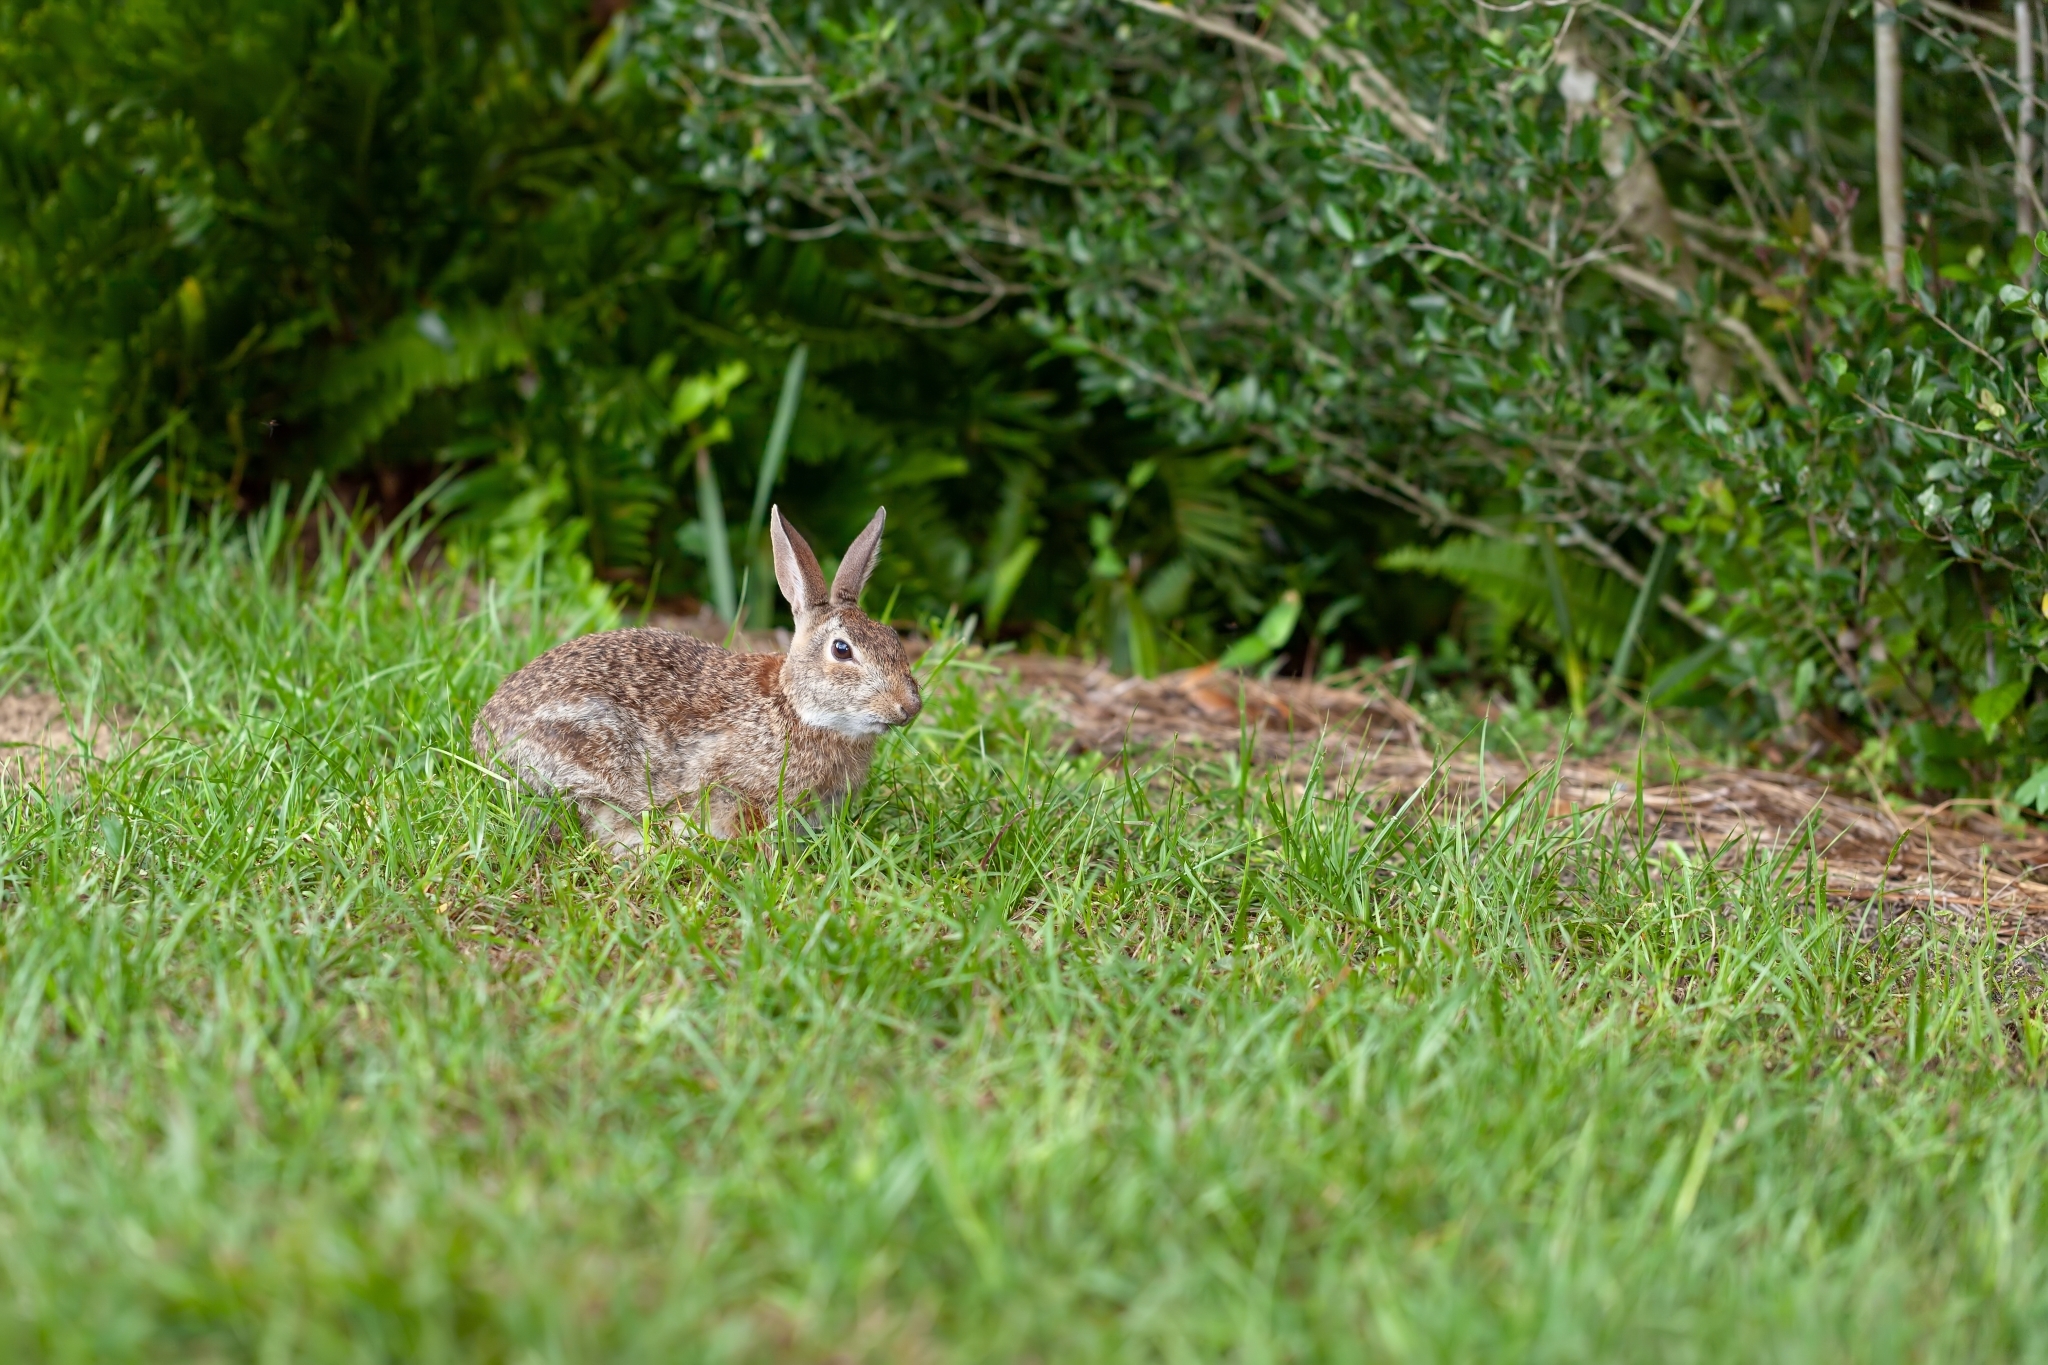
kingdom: Animalia
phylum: Chordata
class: Mammalia
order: Lagomorpha
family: Leporidae
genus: Sylvilagus
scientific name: Sylvilagus floridanus
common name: Eastern cottontail
